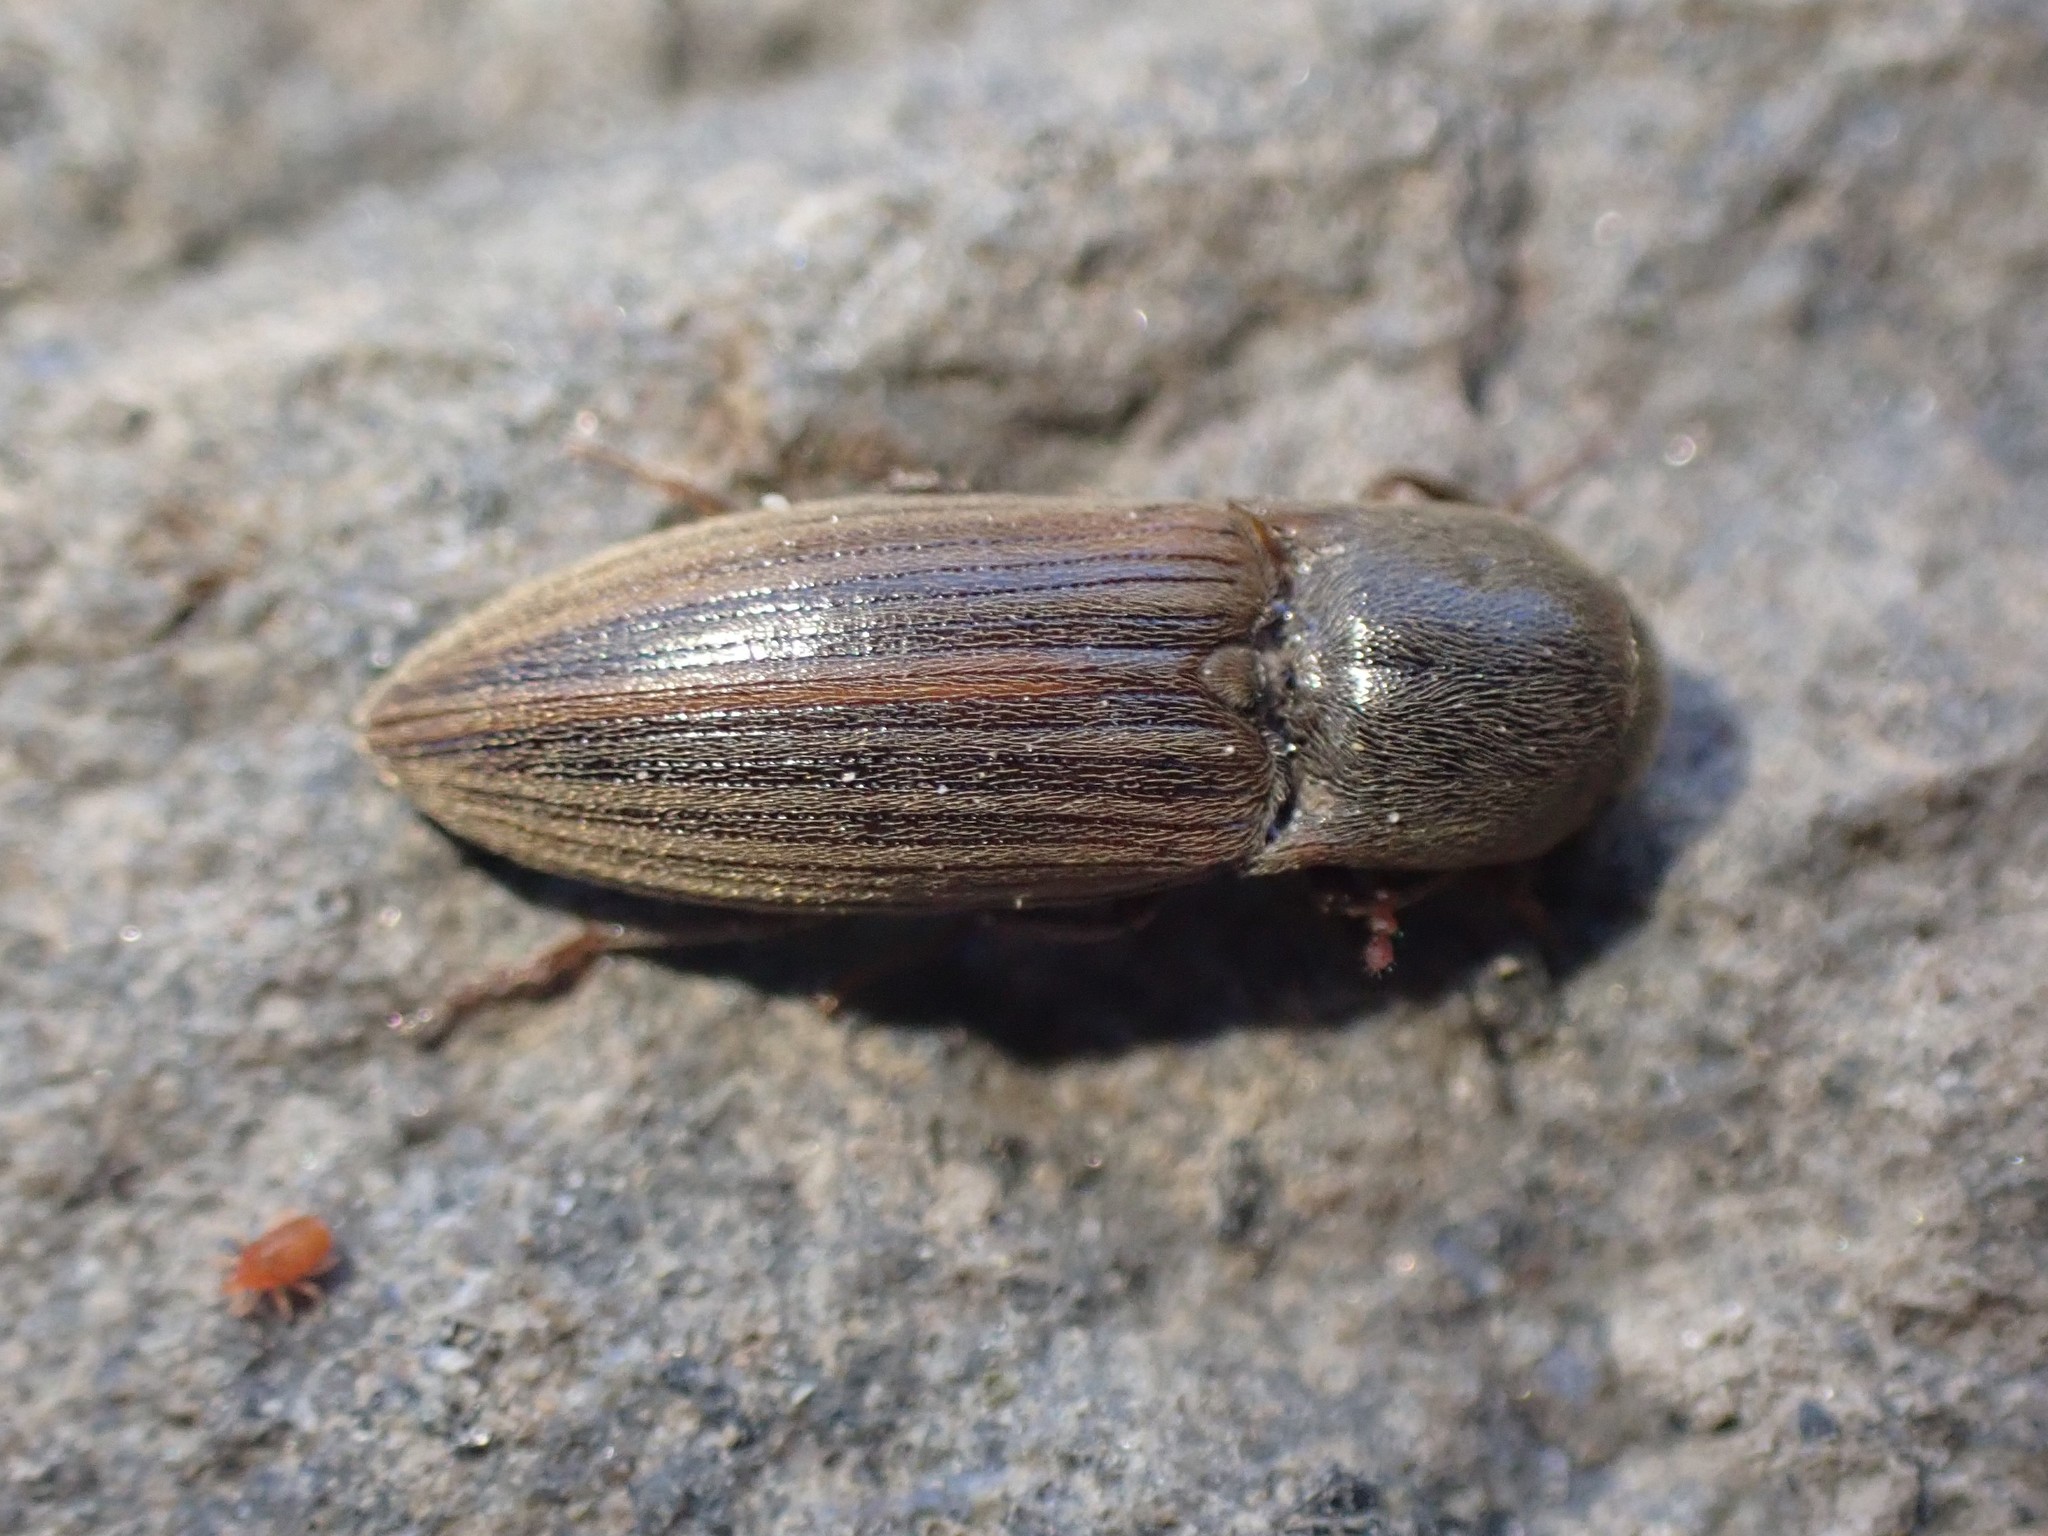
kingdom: Animalia
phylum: Arthropoda
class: Insecta
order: Coleoptera
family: Elateridae
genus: Agriotes
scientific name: Agriotes lineatus
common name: Lined click beetle
